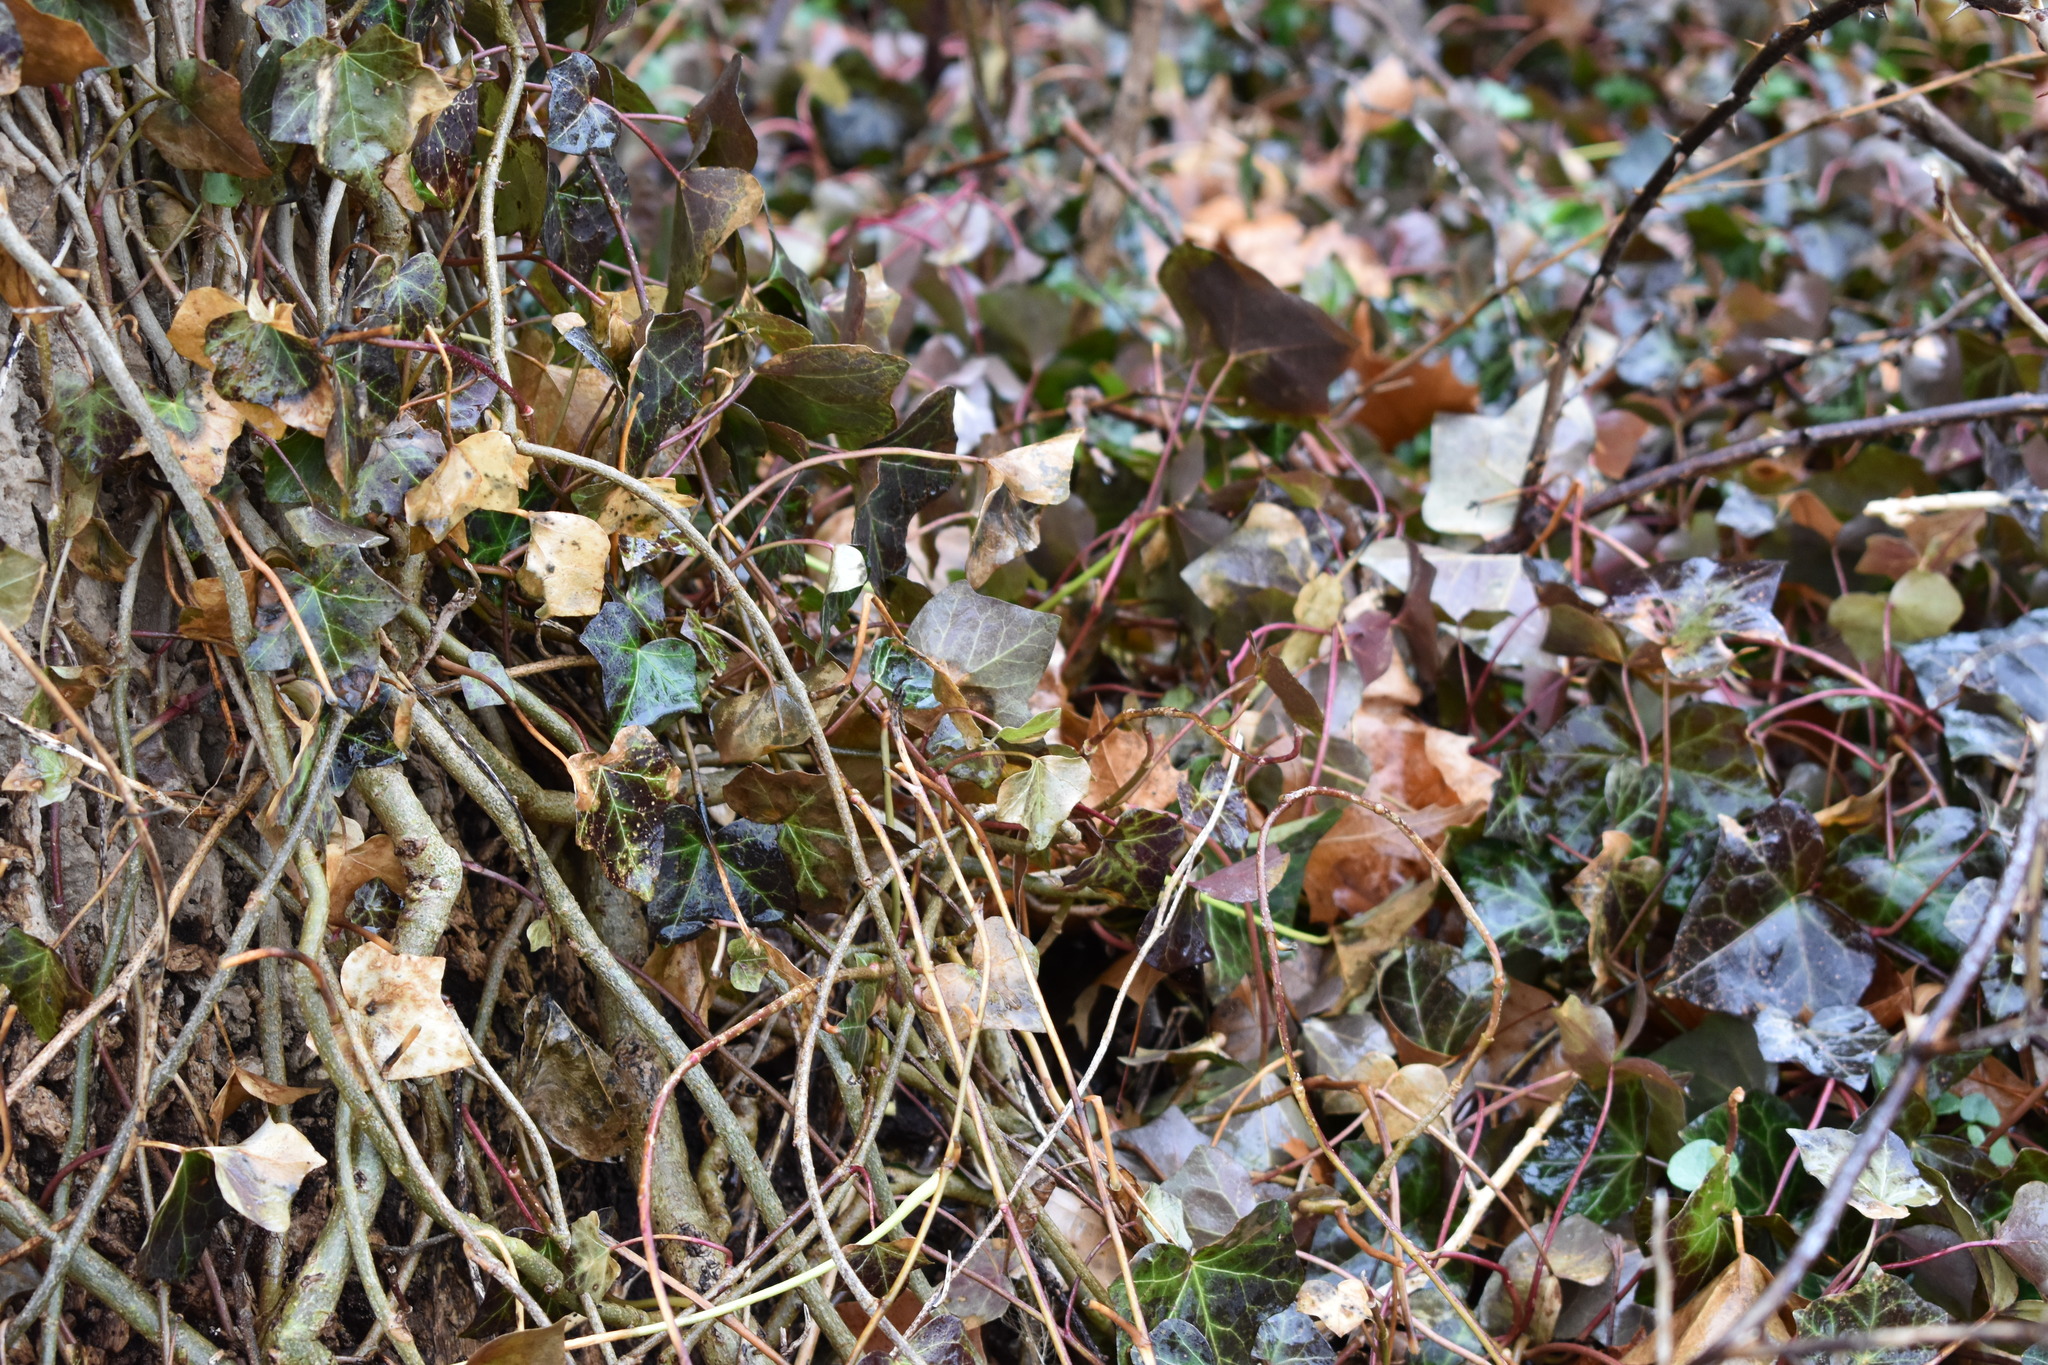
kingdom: Plantae
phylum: Tracheophyta
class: Magnoliopsida
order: Apiales
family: Araliaceae
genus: Hedera
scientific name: Hedera helix
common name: Ivy
